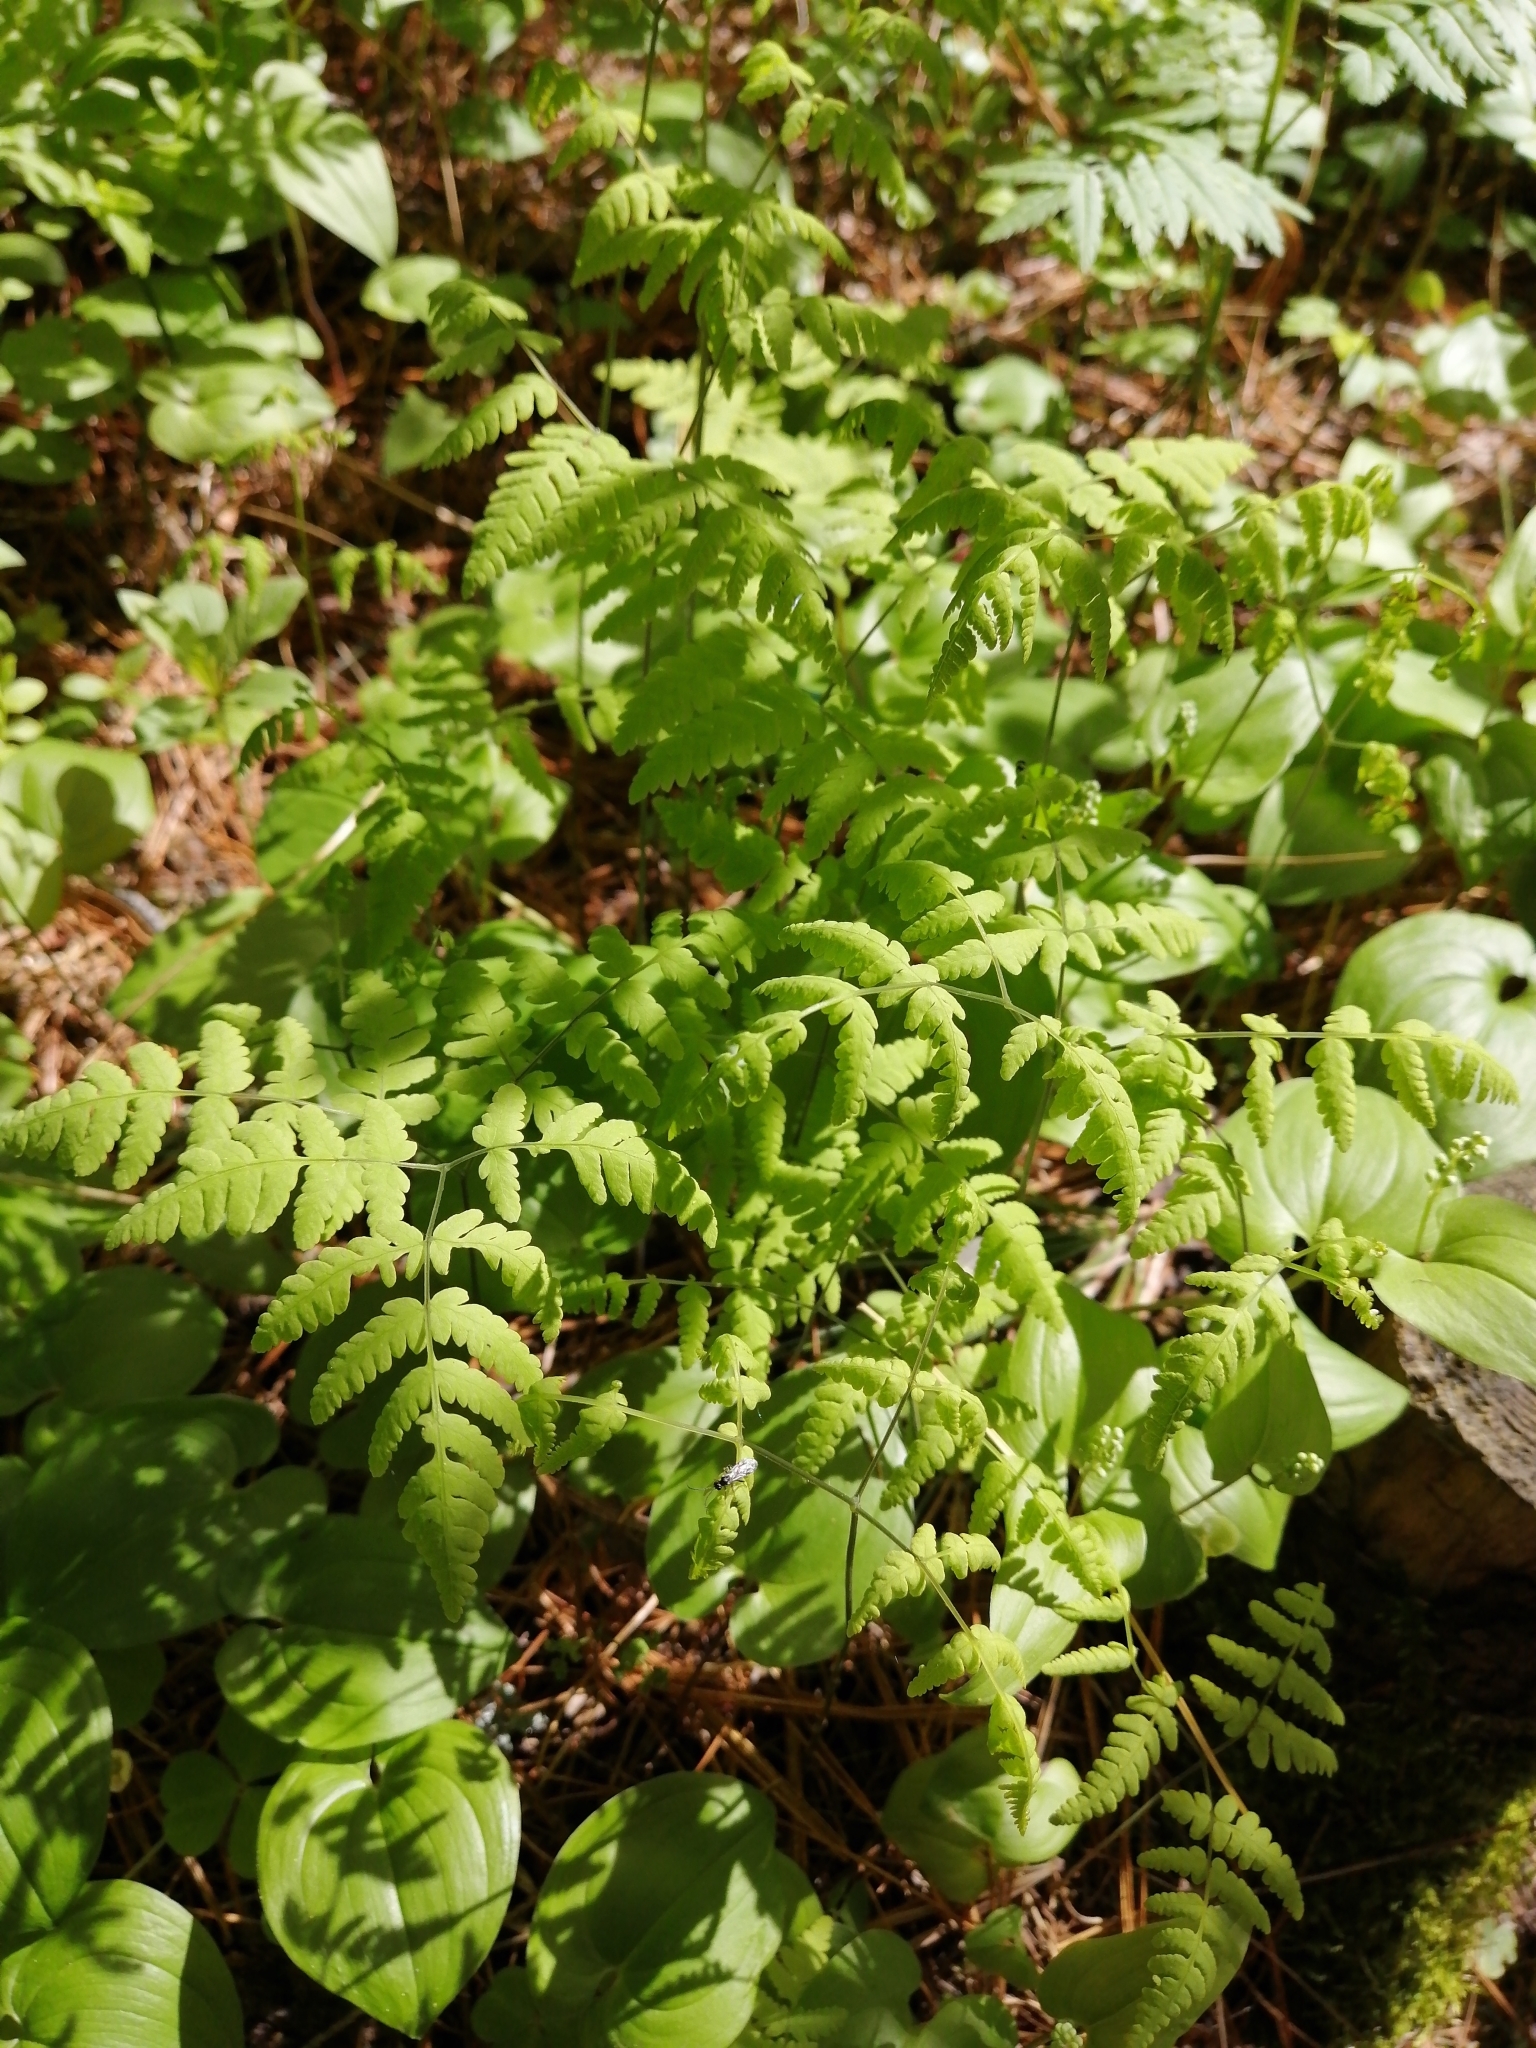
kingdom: Plantae
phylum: Tracheophyta
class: Polypodiopsida
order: Polypodiales
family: Cystopteridaceae
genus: Gymnocarpium
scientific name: Gymnocarpium dryopteris
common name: Oak fern
